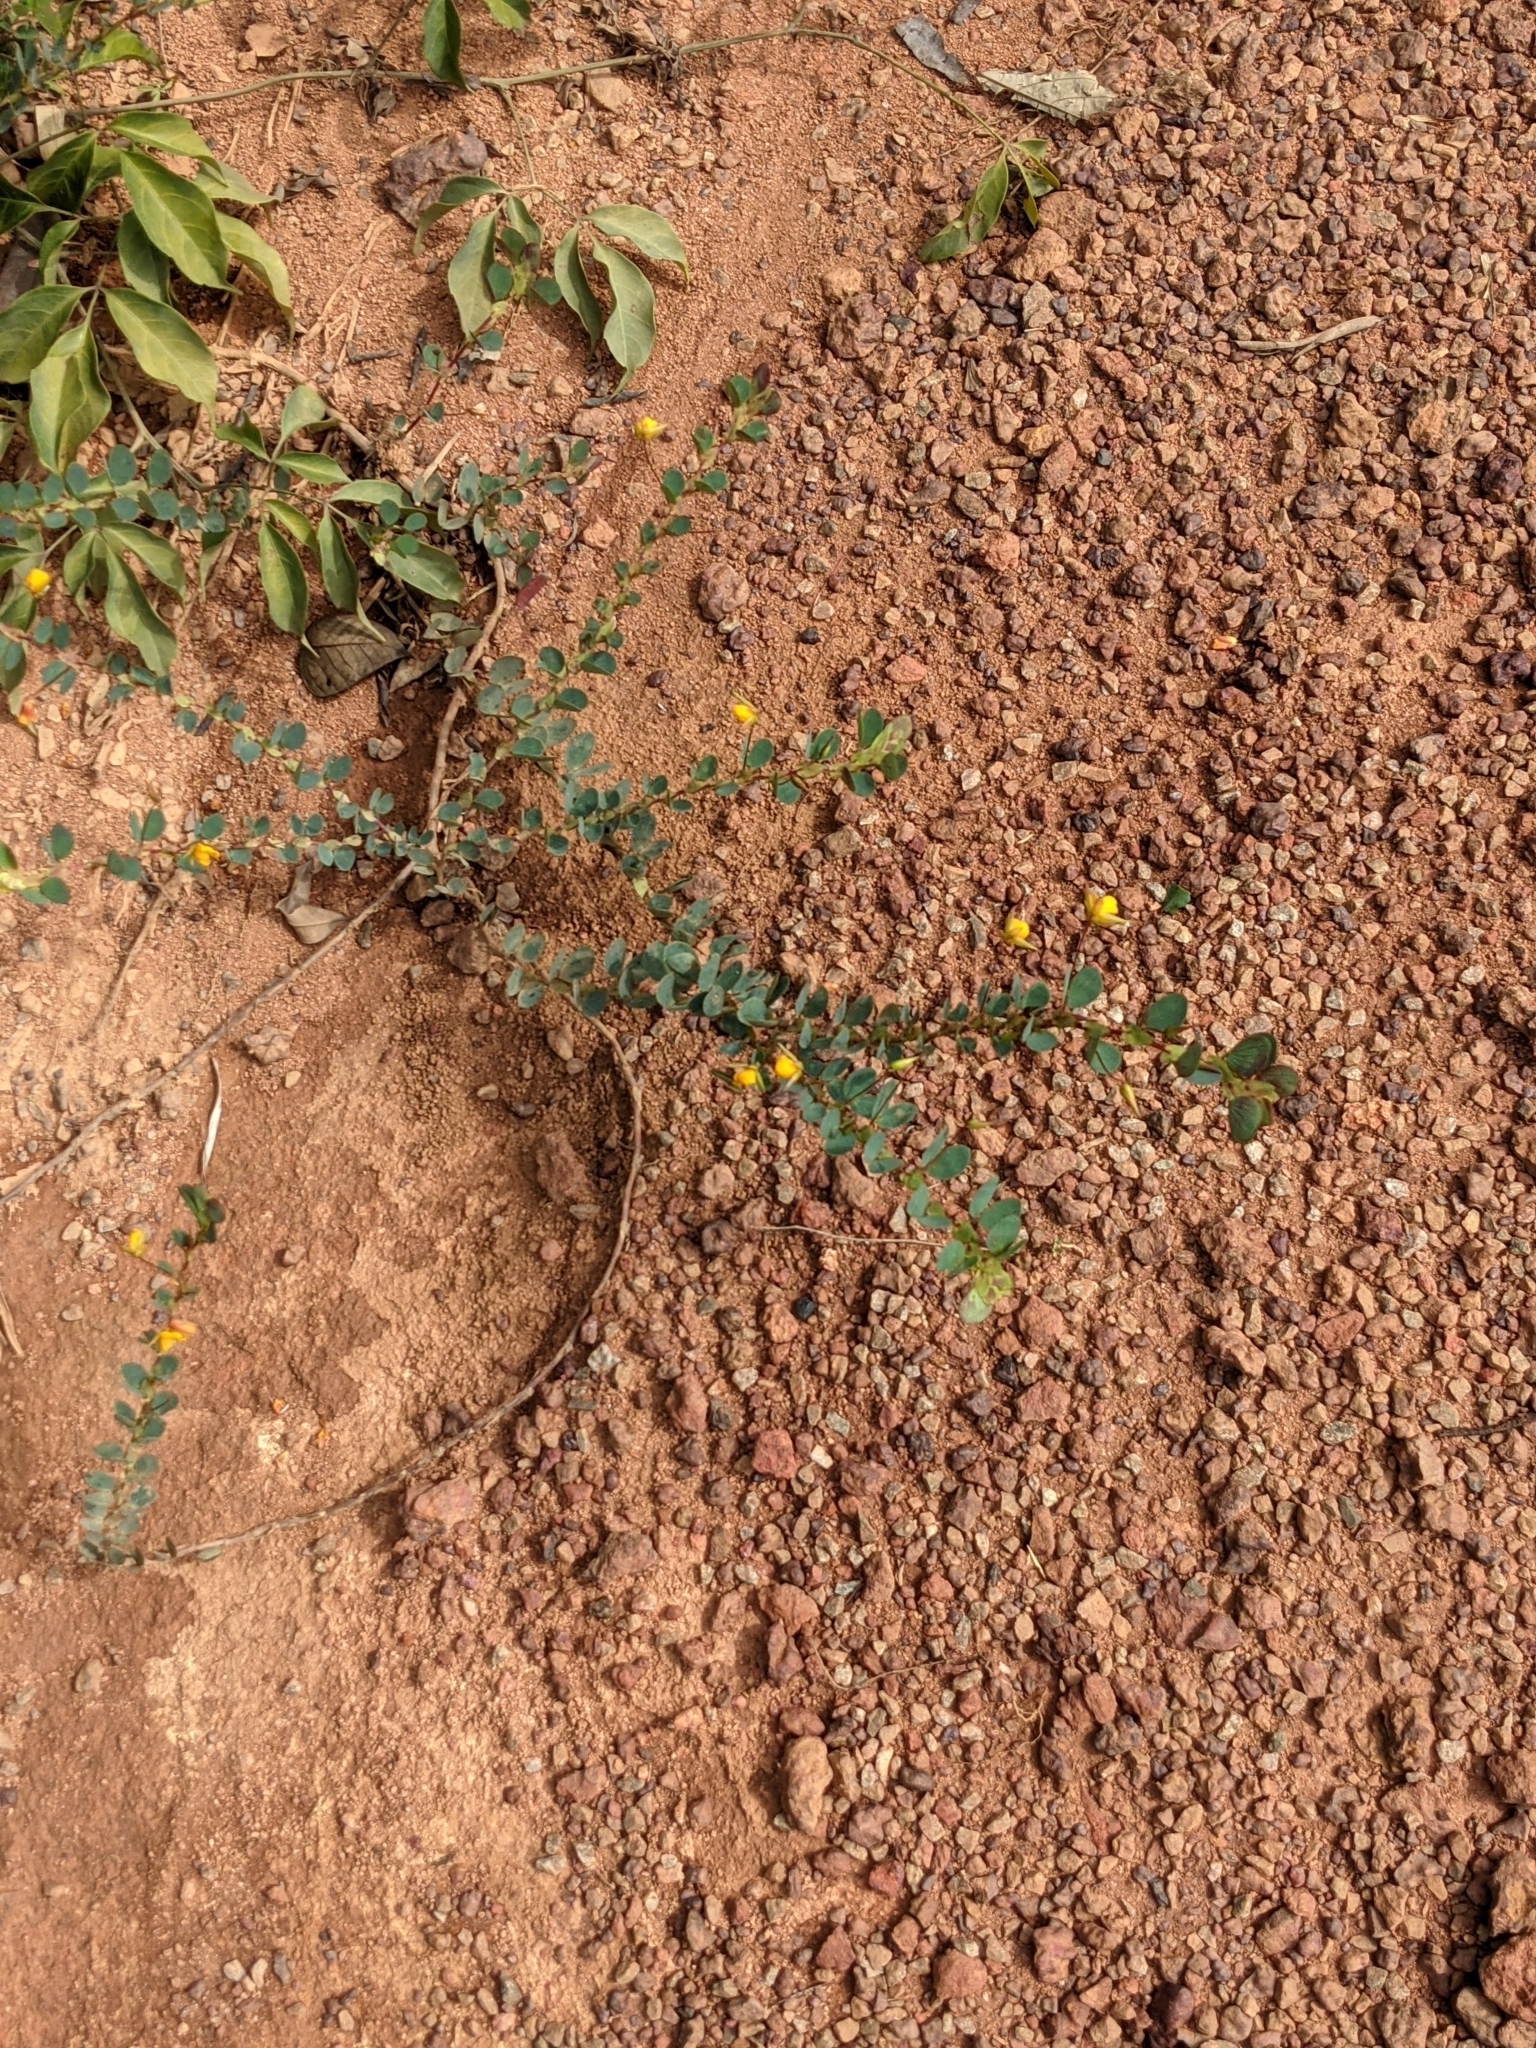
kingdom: Plantae
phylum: Tracheophyta
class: Magnoliopsida
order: Fabales
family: Fabaceae
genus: Chamaecrista
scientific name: Chamaecrista diphylla
